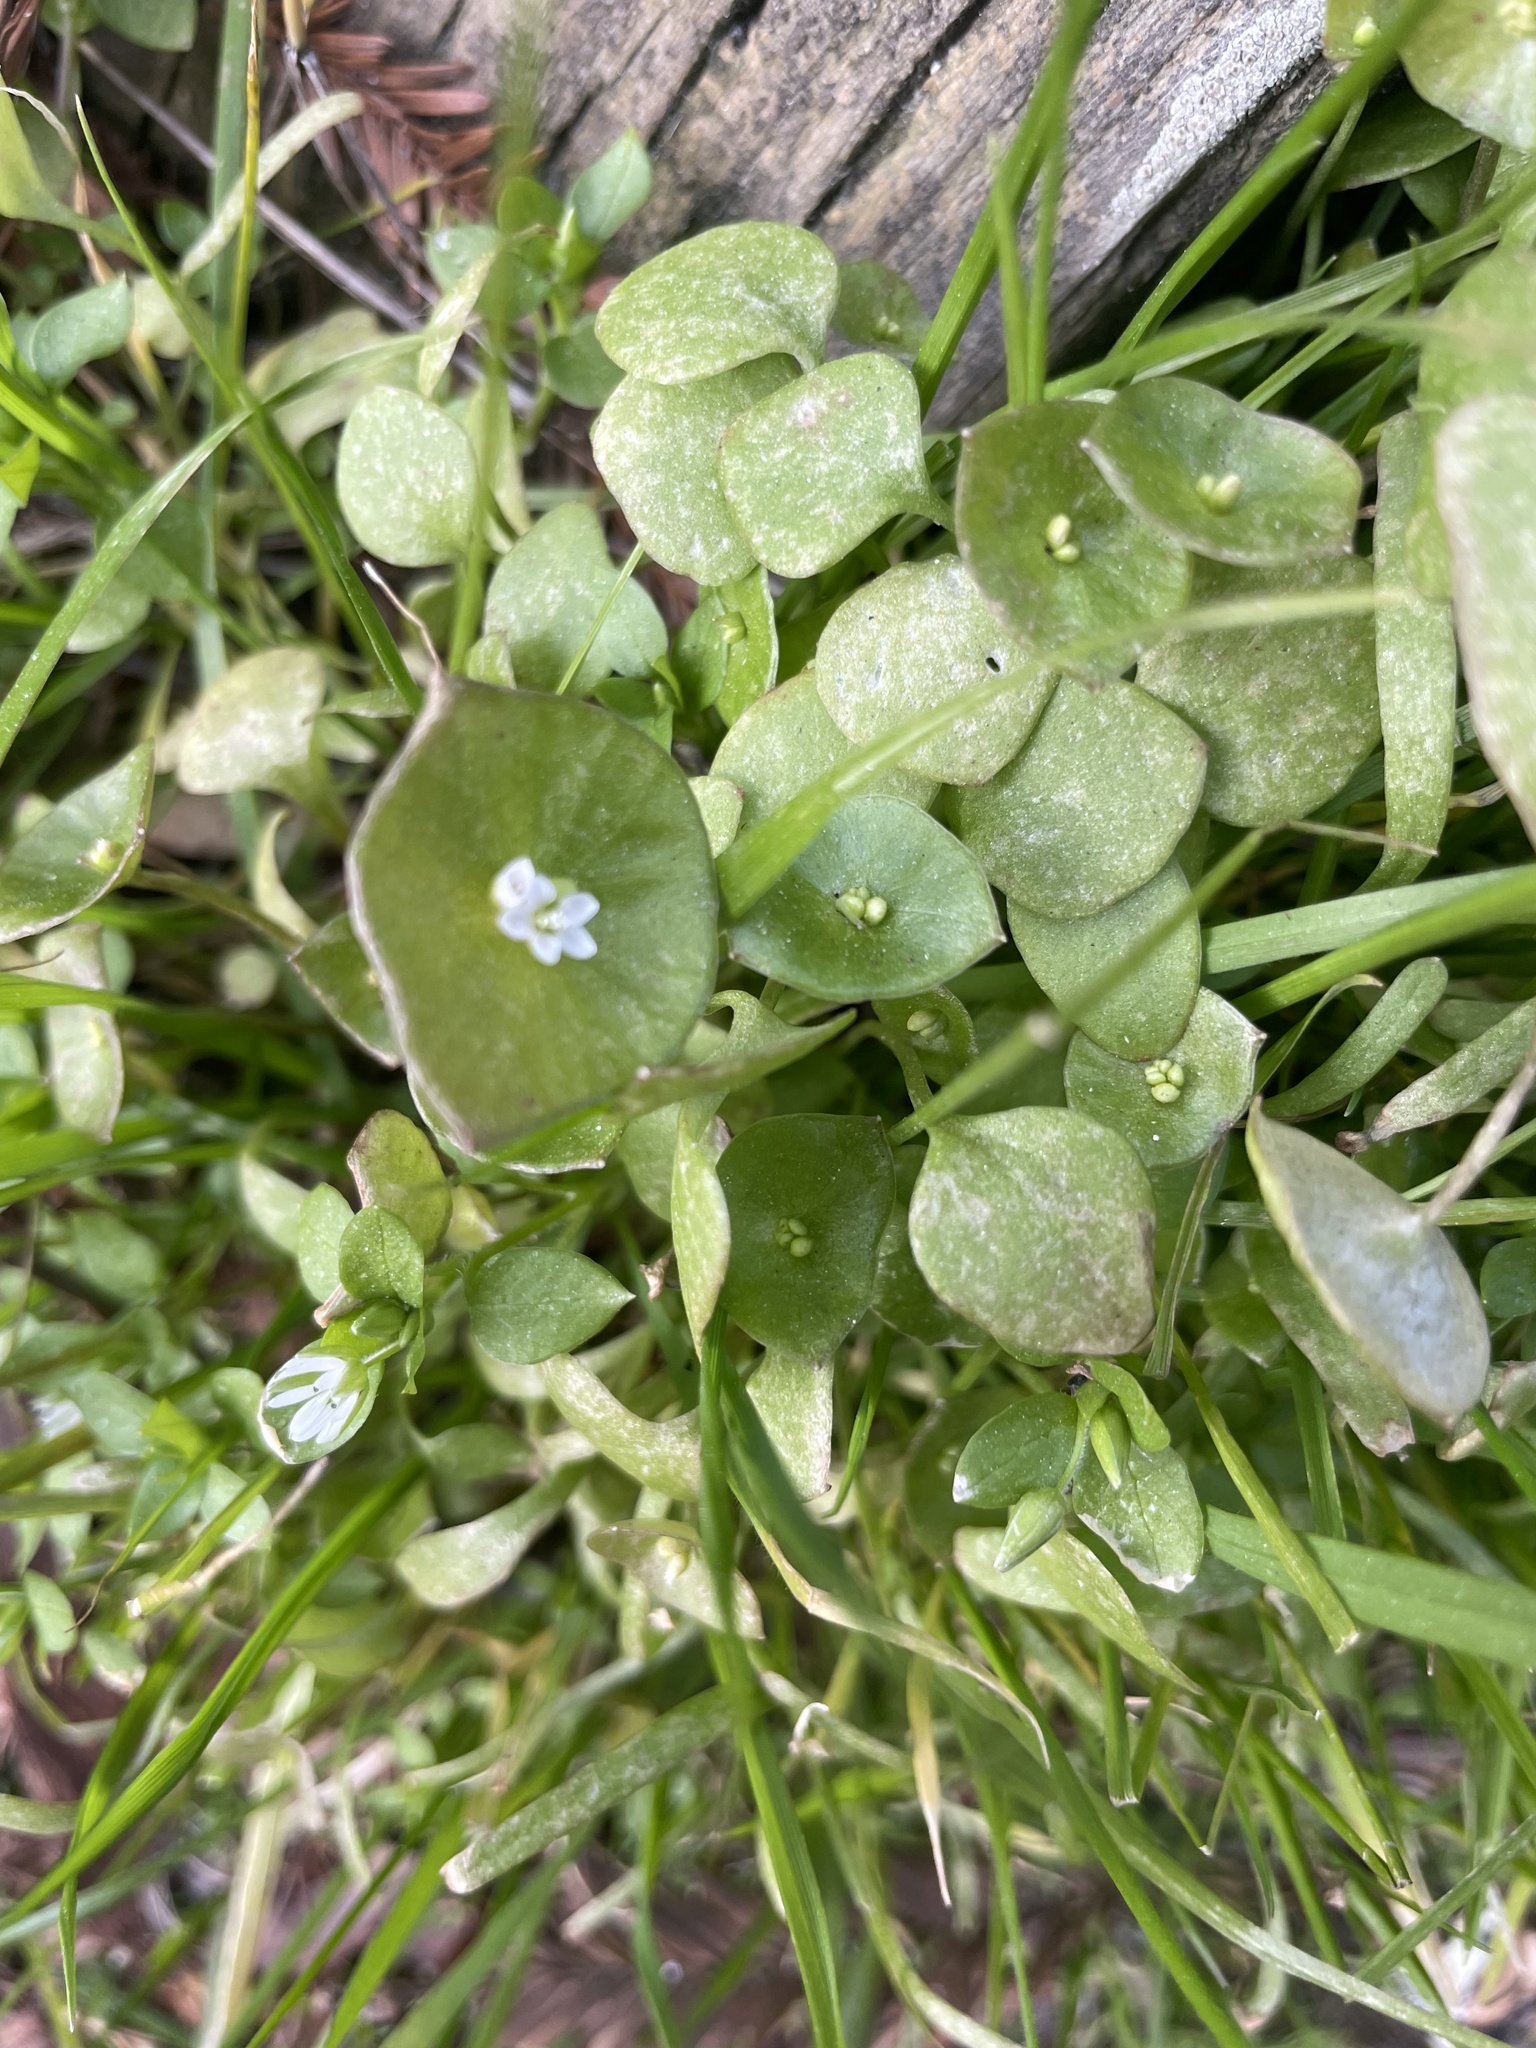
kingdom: Plantae
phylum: Tracheophyta
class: Magnoliopsida
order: Caryophyllales
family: Montiaceae
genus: Claytonia
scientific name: Claytonia perfoliata
